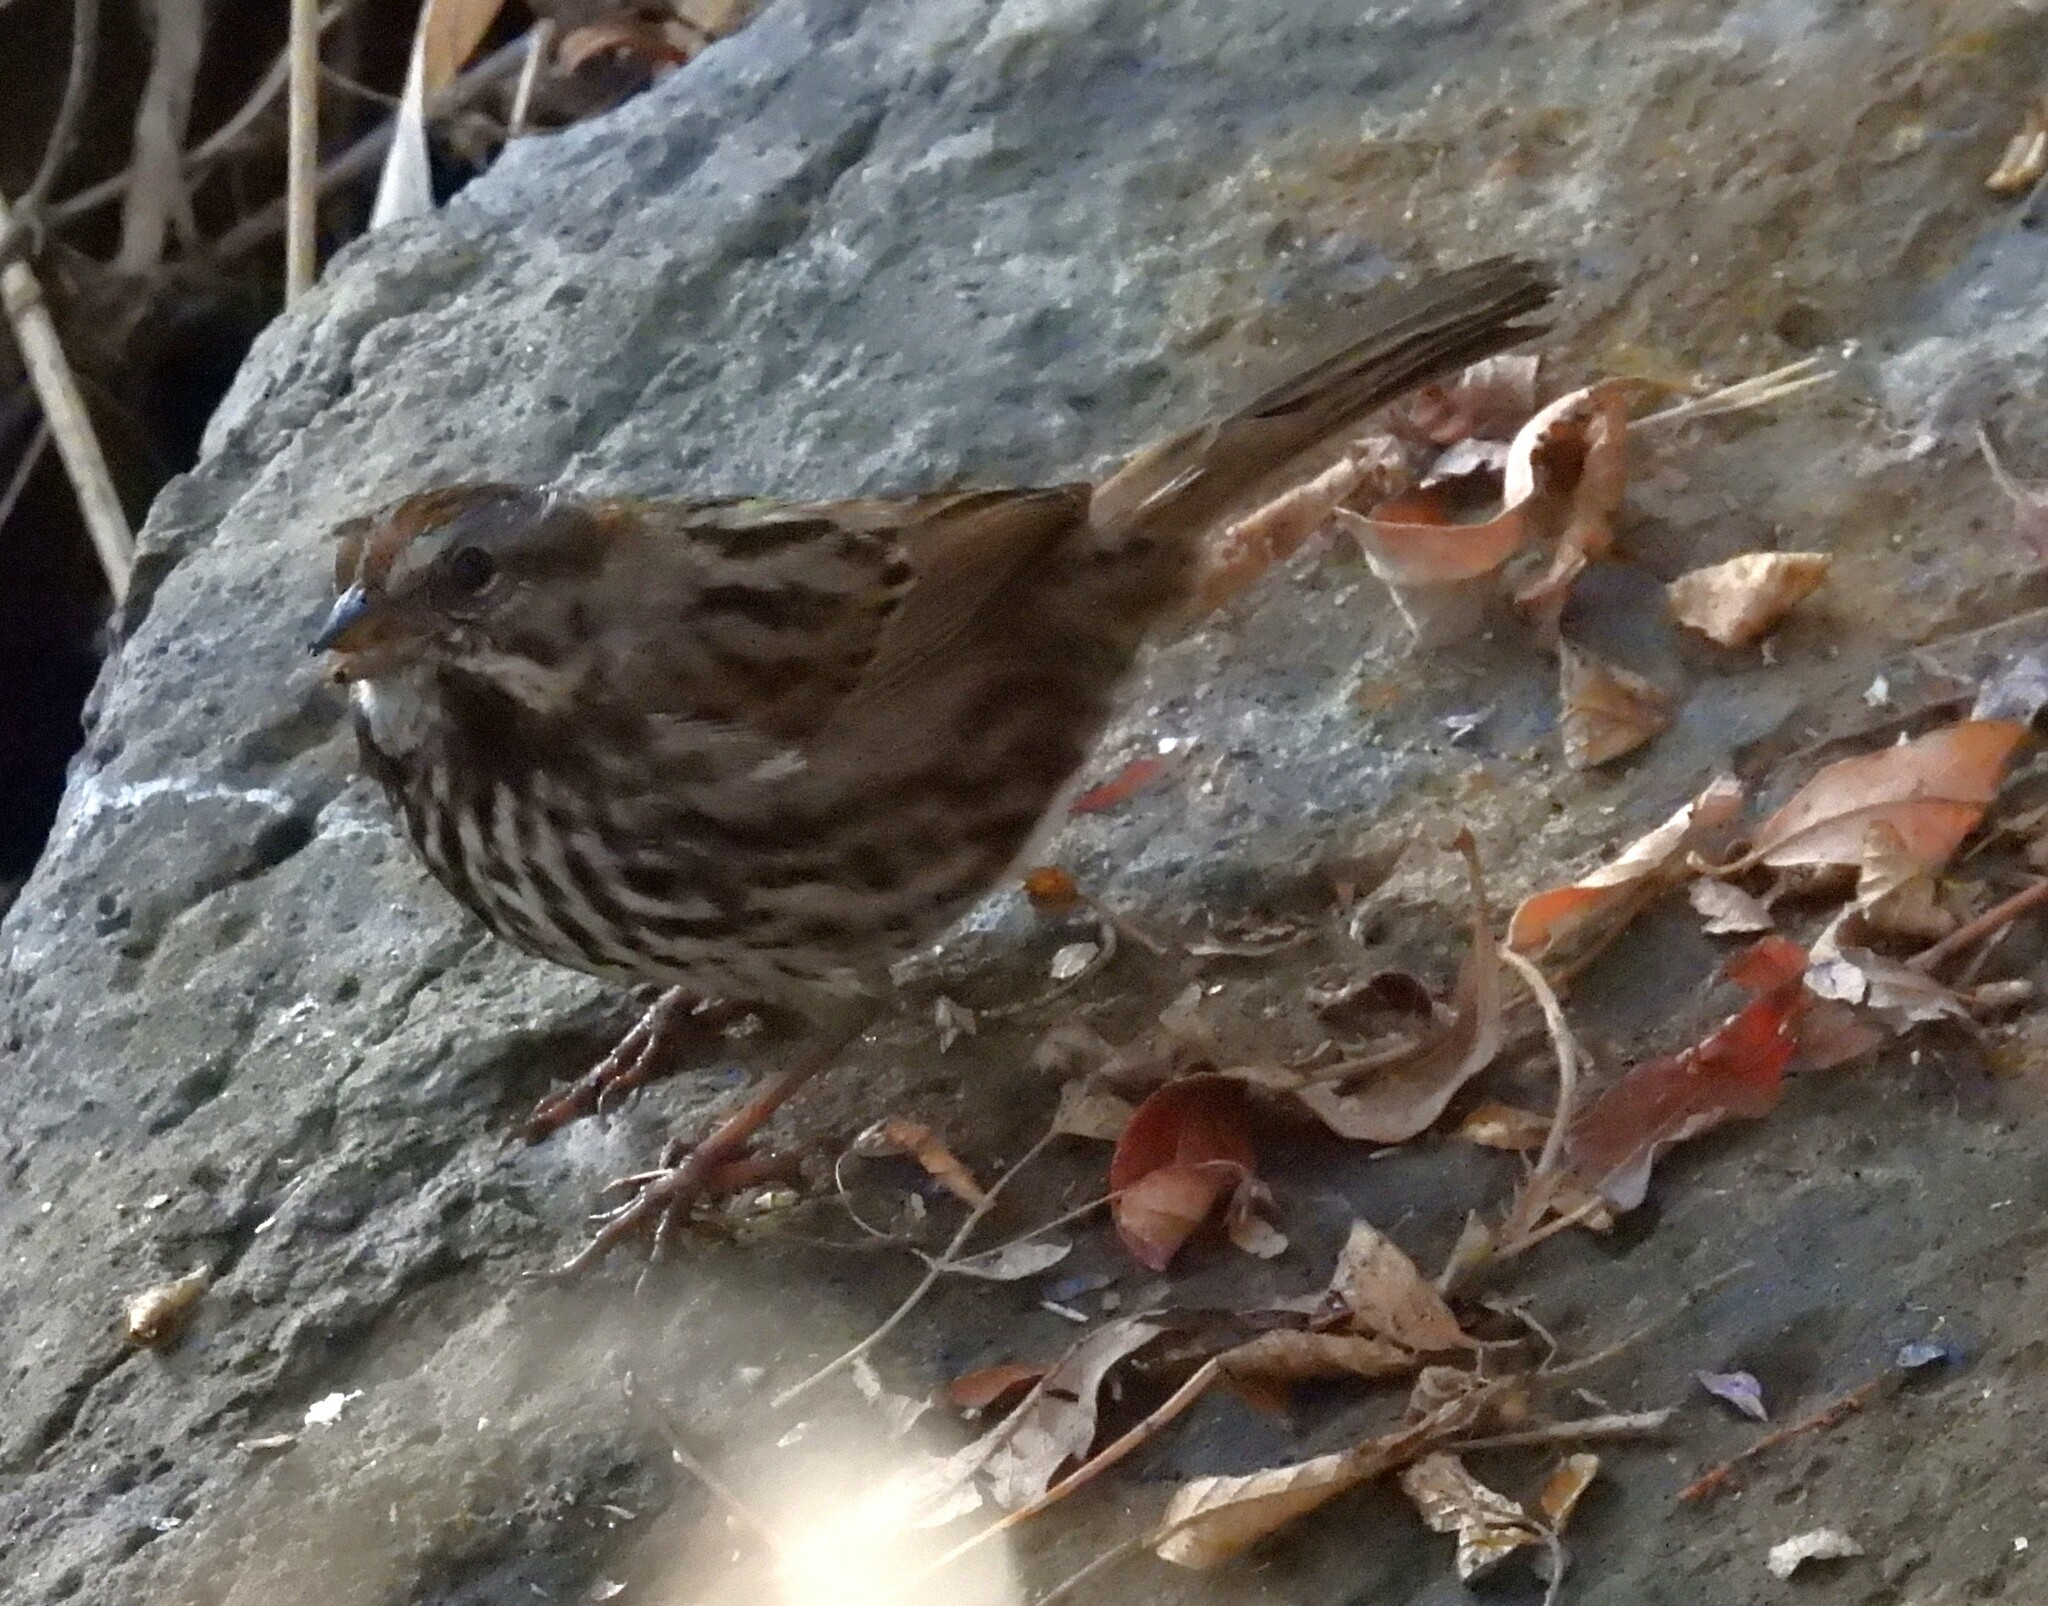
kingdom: Animalia
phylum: Chordata
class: Aves
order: Passeriformes
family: Passerellidae
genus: Melospiza
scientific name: Melospiza melodia
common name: Song sparrow
